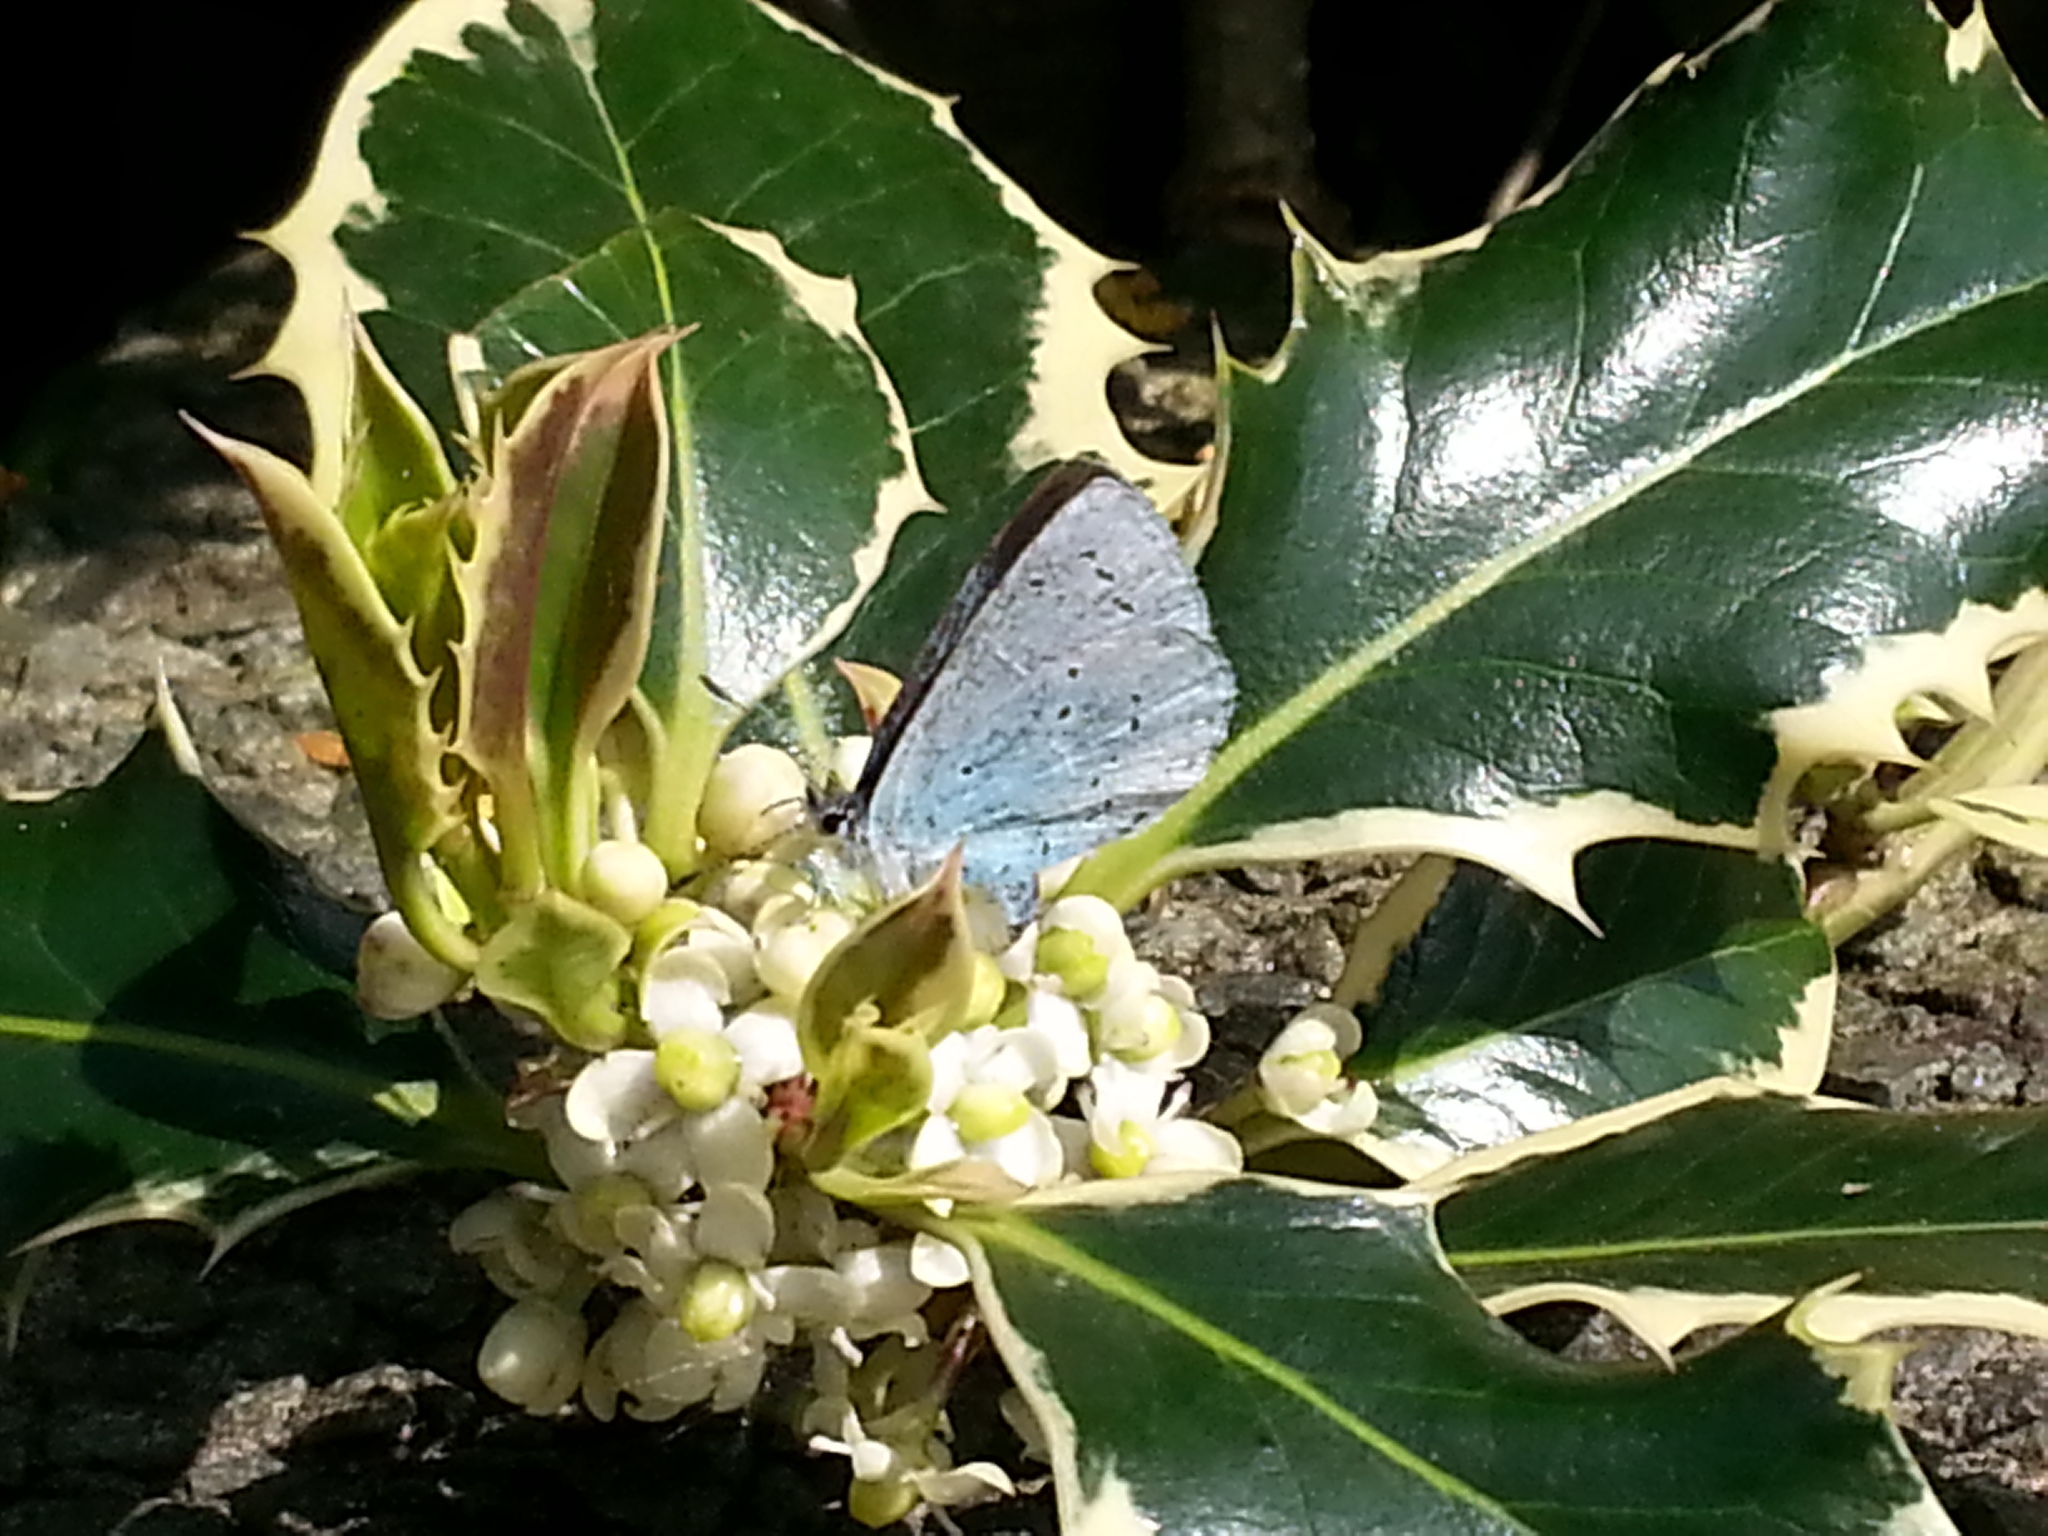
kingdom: Animalia
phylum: Arthropoda
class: Insecta
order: Lepidoptera
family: Lycaenidae
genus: Celastrina
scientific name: Celastrina argiolus
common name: Holly blue
